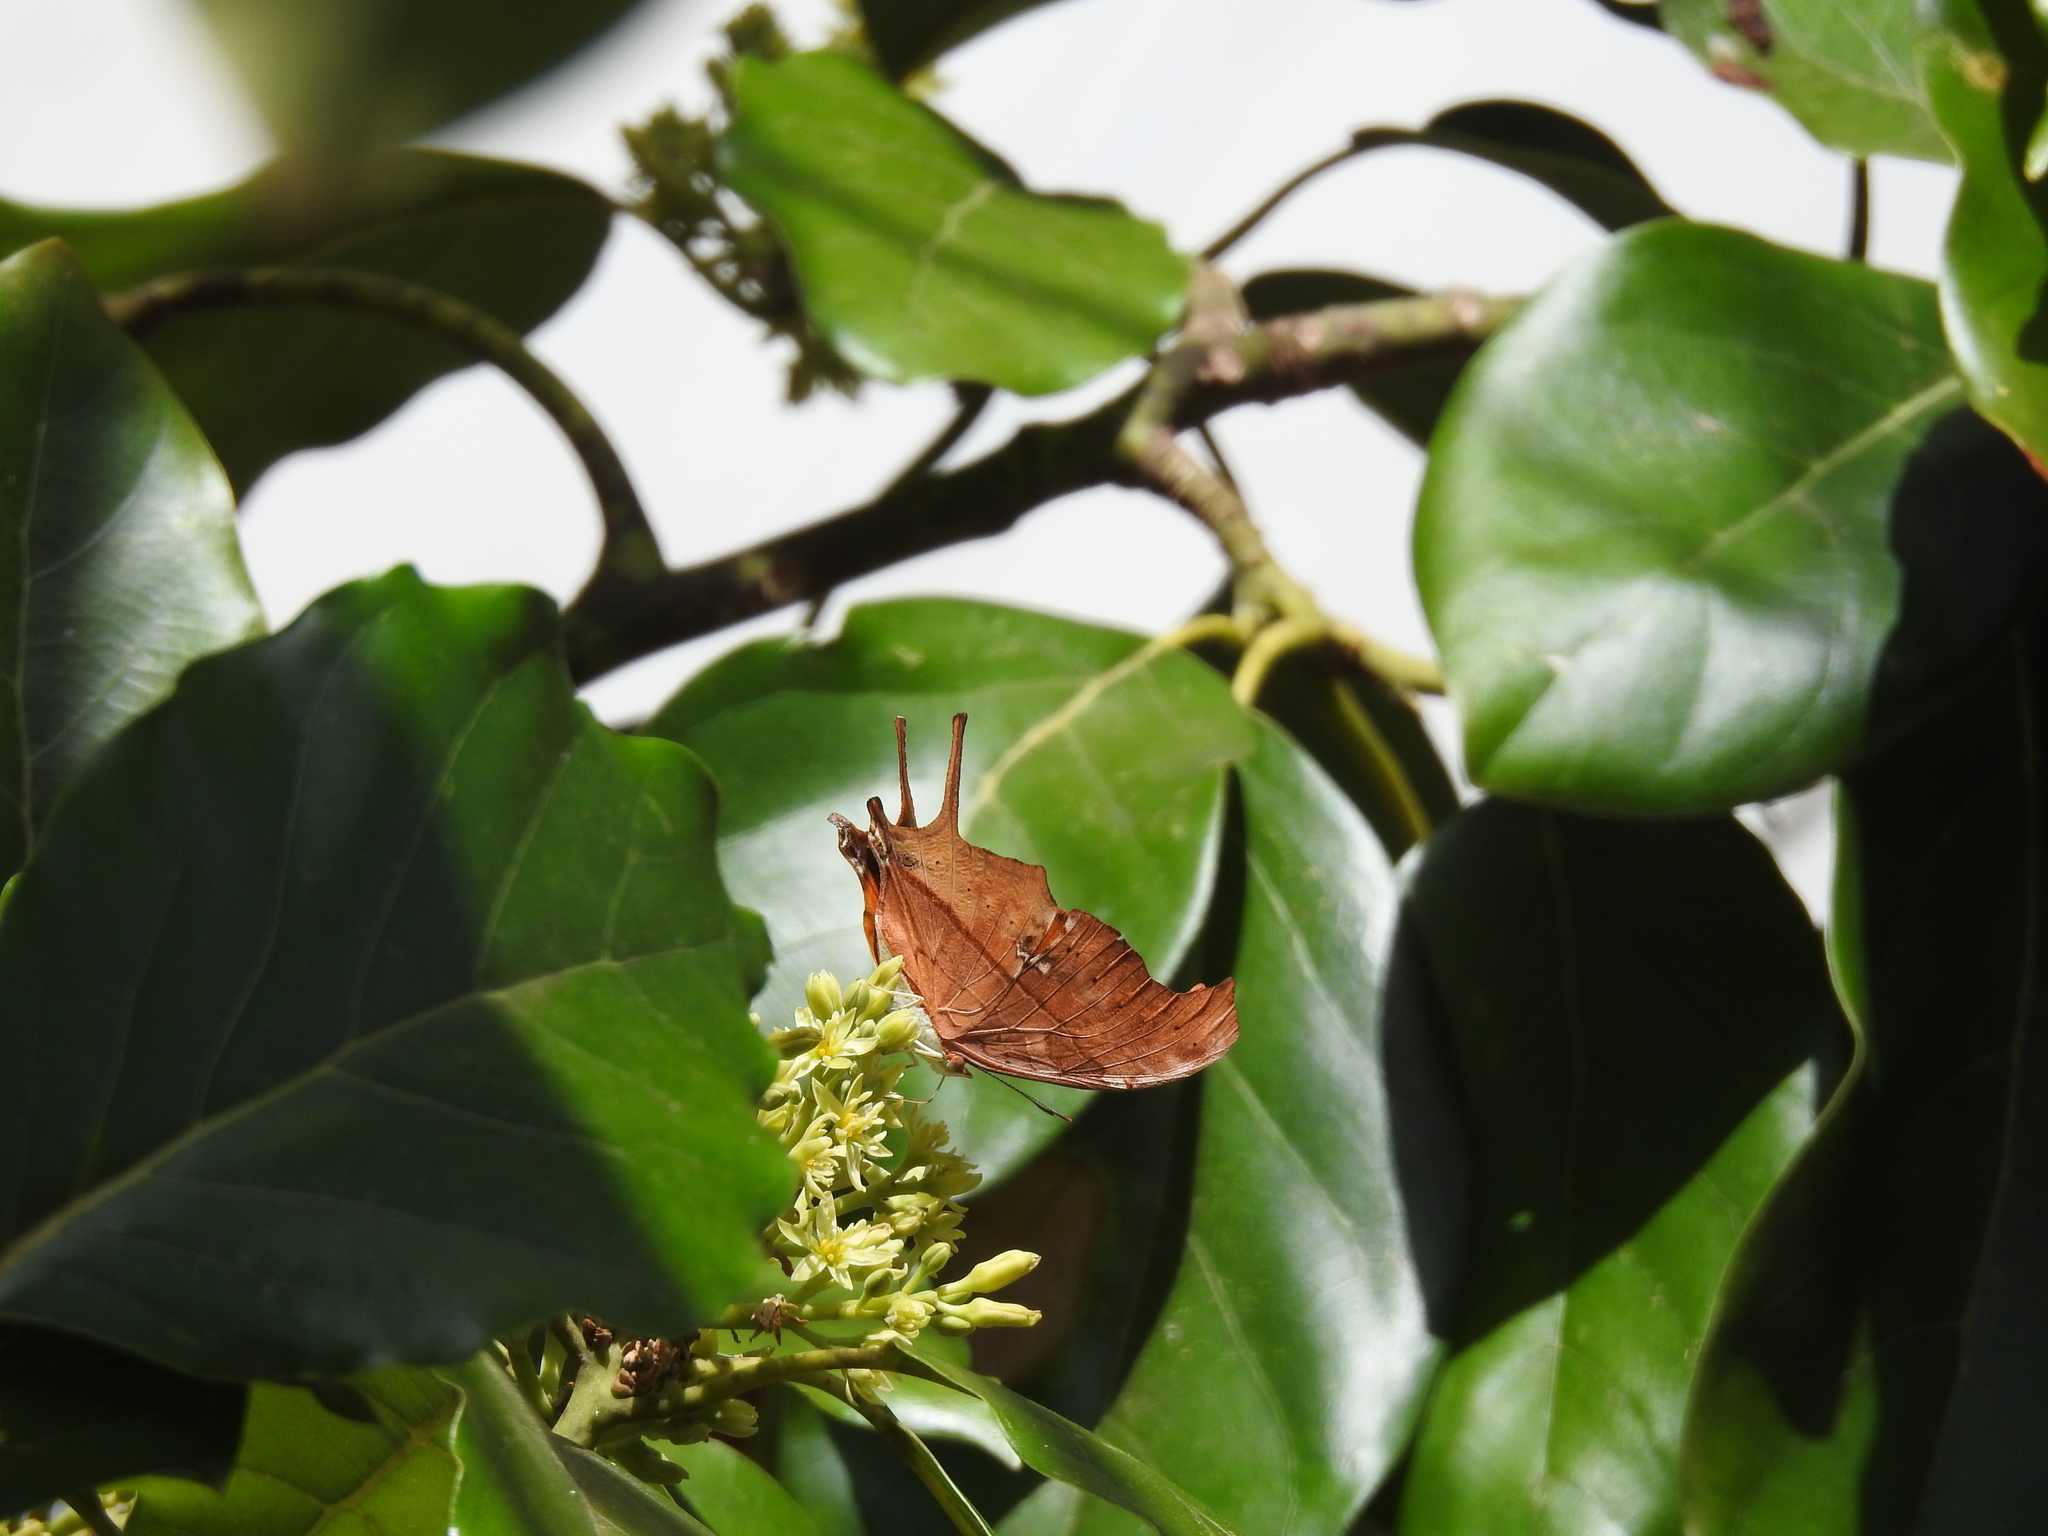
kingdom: Animalia
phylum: Arthropoda
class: Insecta
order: Lepidoptera
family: Nymphalidae
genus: Marpesia
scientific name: Marpesia petreus
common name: Red dagger wing
